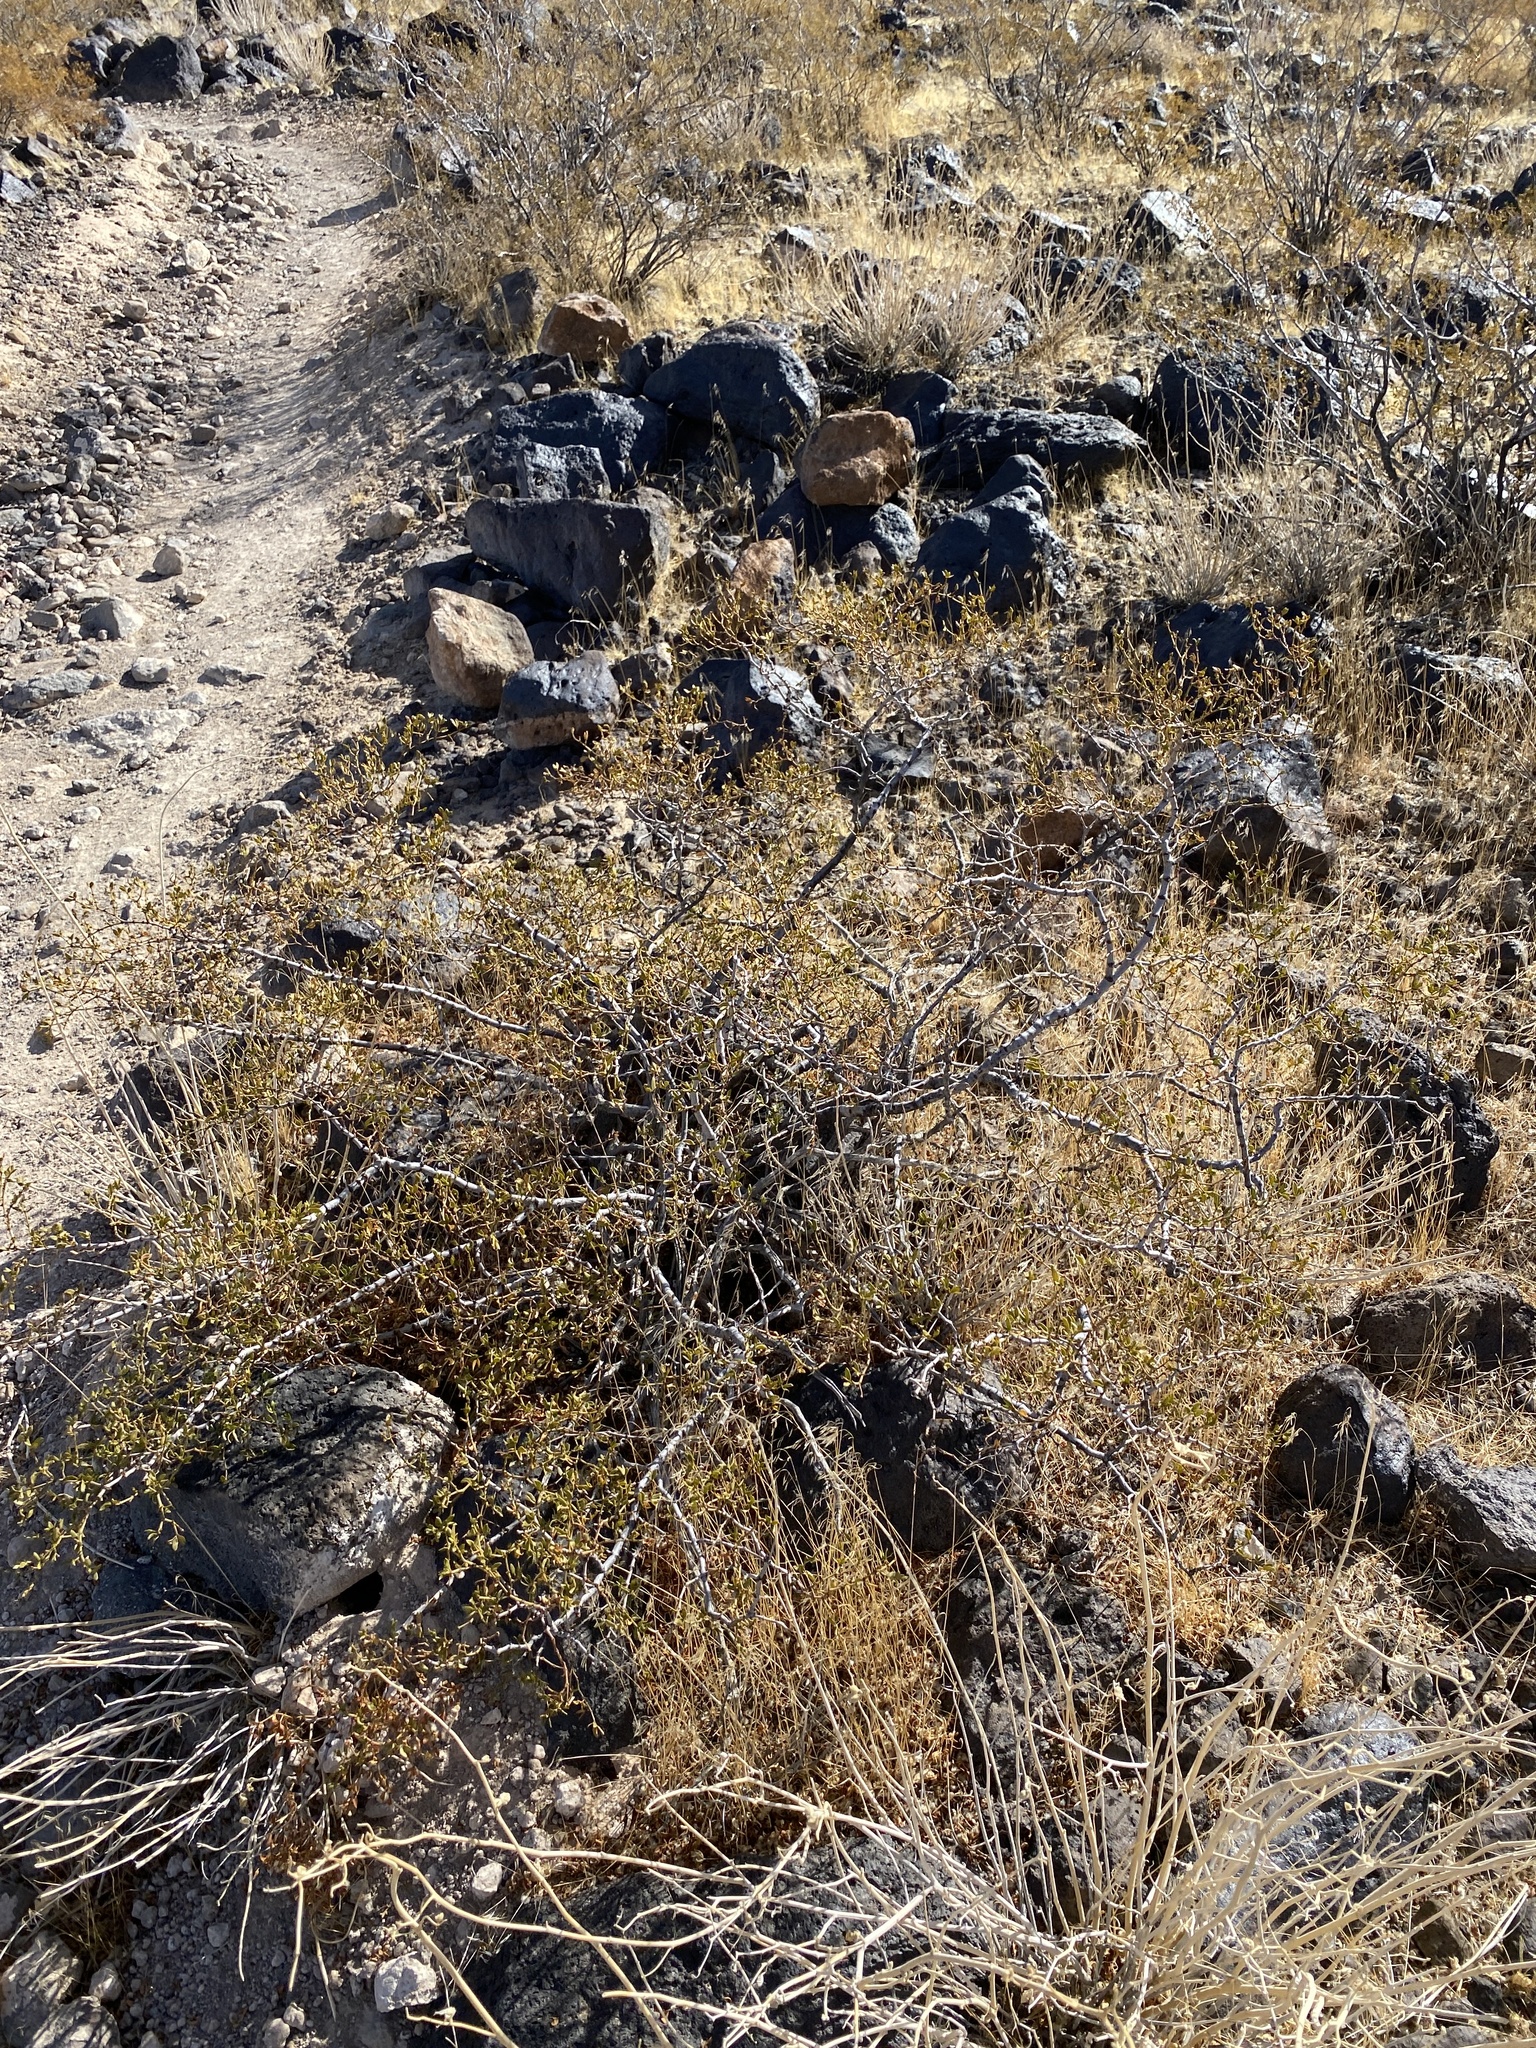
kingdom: Plantae
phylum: Tracheophyta
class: Magnoliopsida
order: Zygophyllales
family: Zygophyllaceae
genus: Larrea
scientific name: Larrea tridentata
